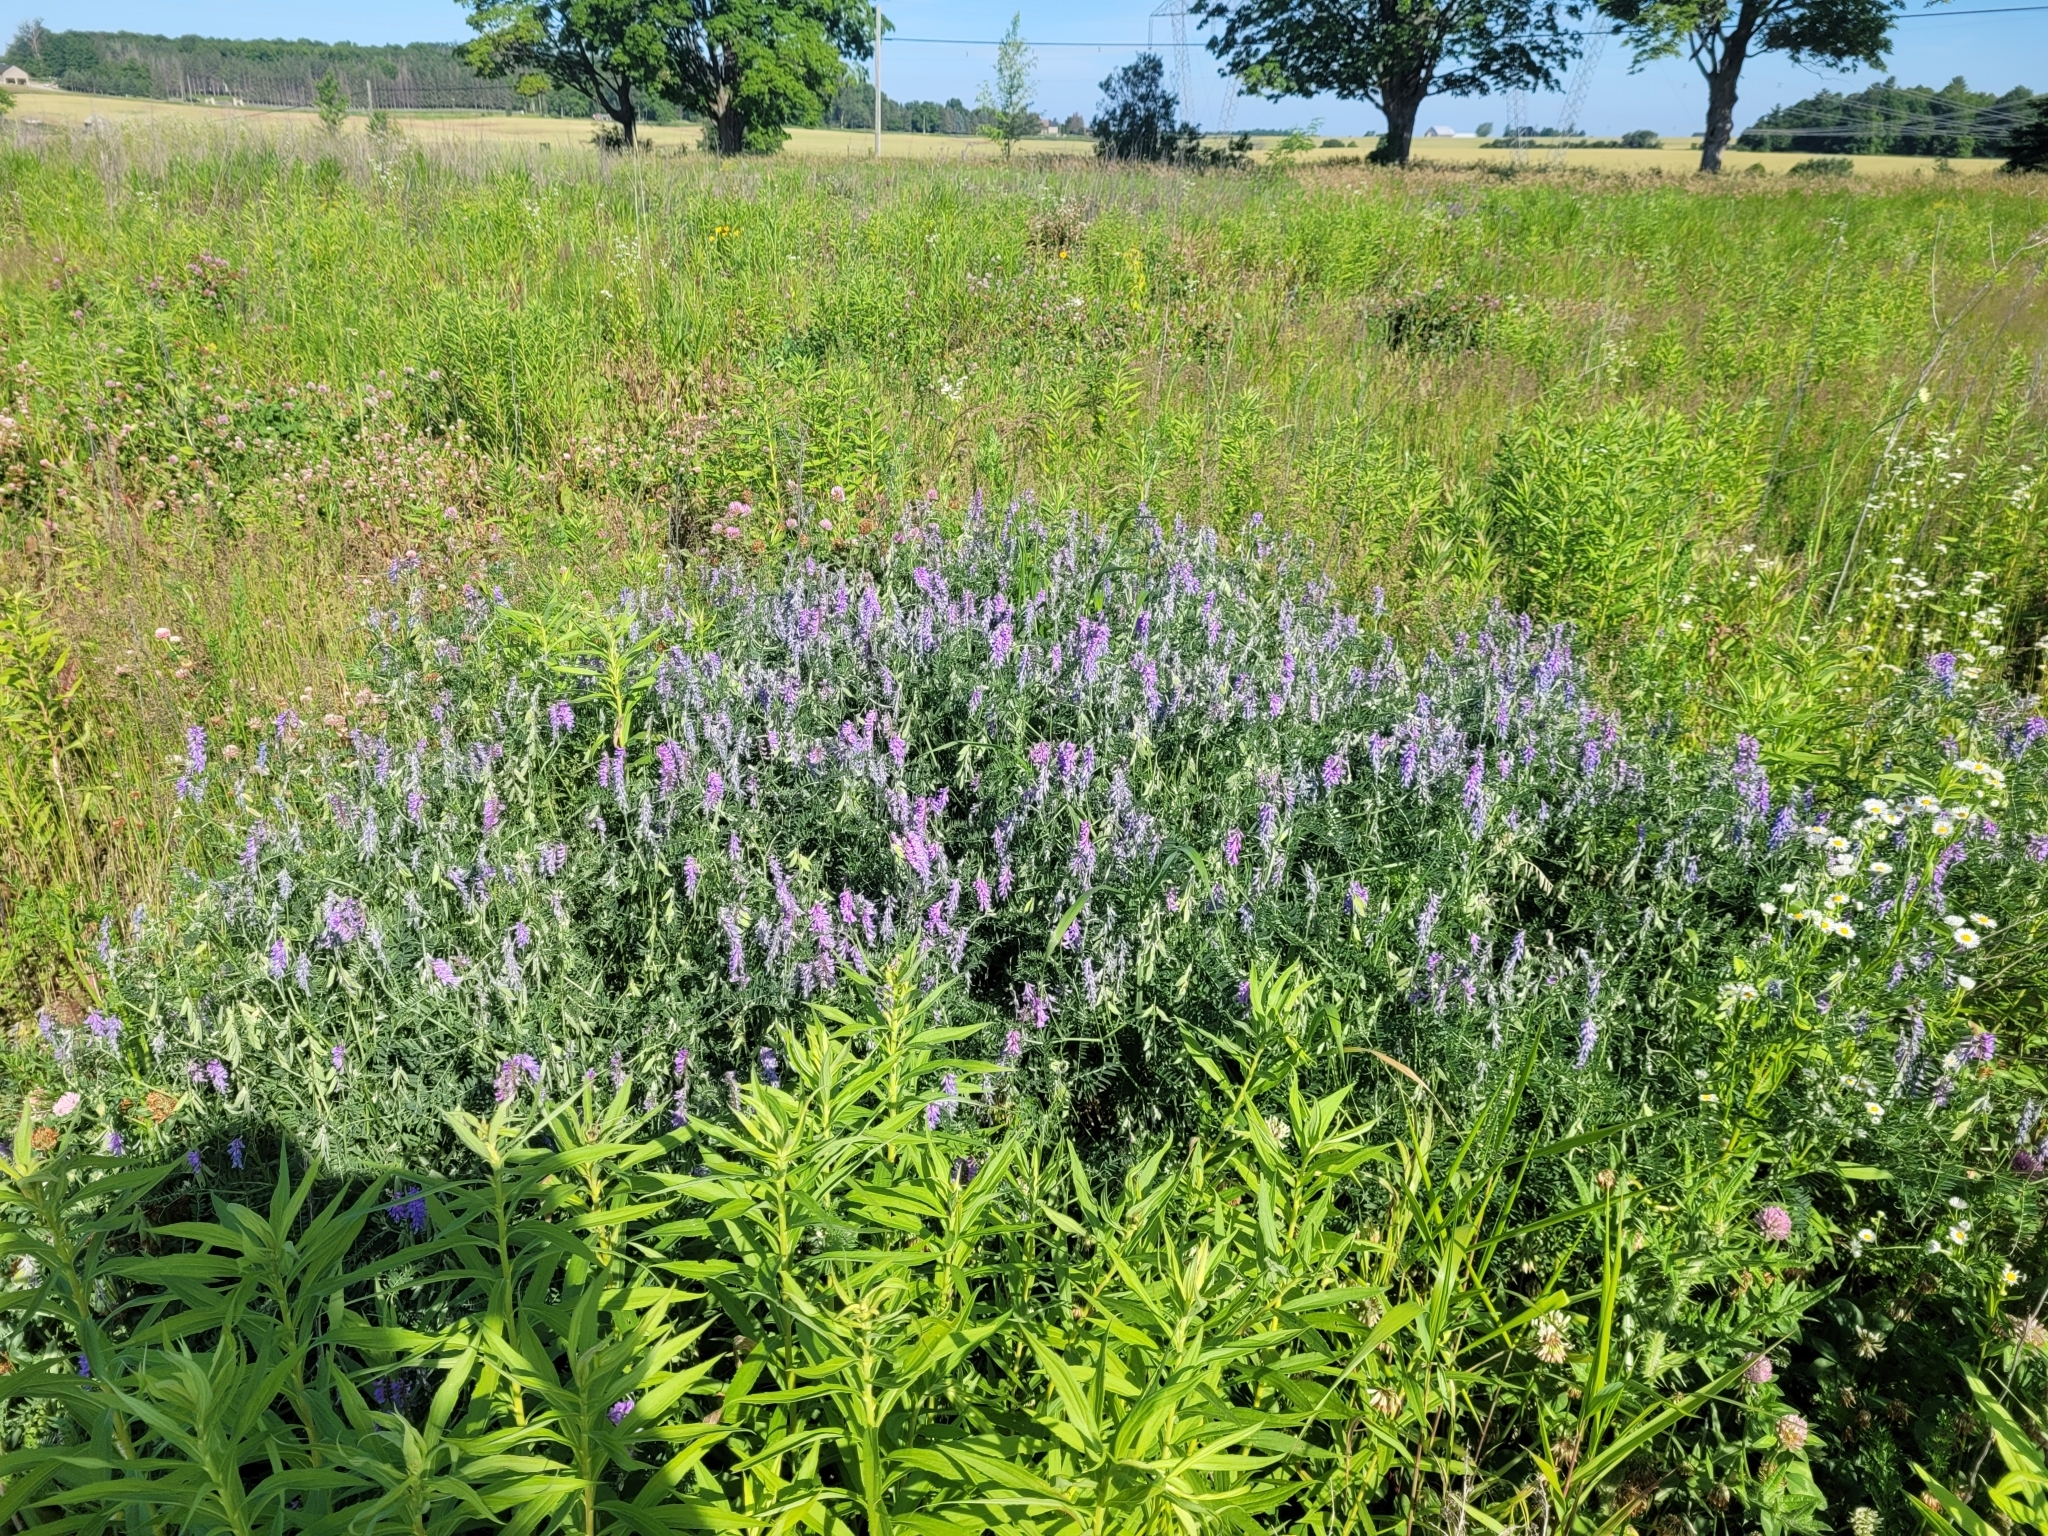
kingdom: Plantae
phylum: Tracheophyta
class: Magnoliopsida
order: Fabales
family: Fabaceae
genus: Vicia
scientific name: Vicia cracca
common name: Bird vetch
